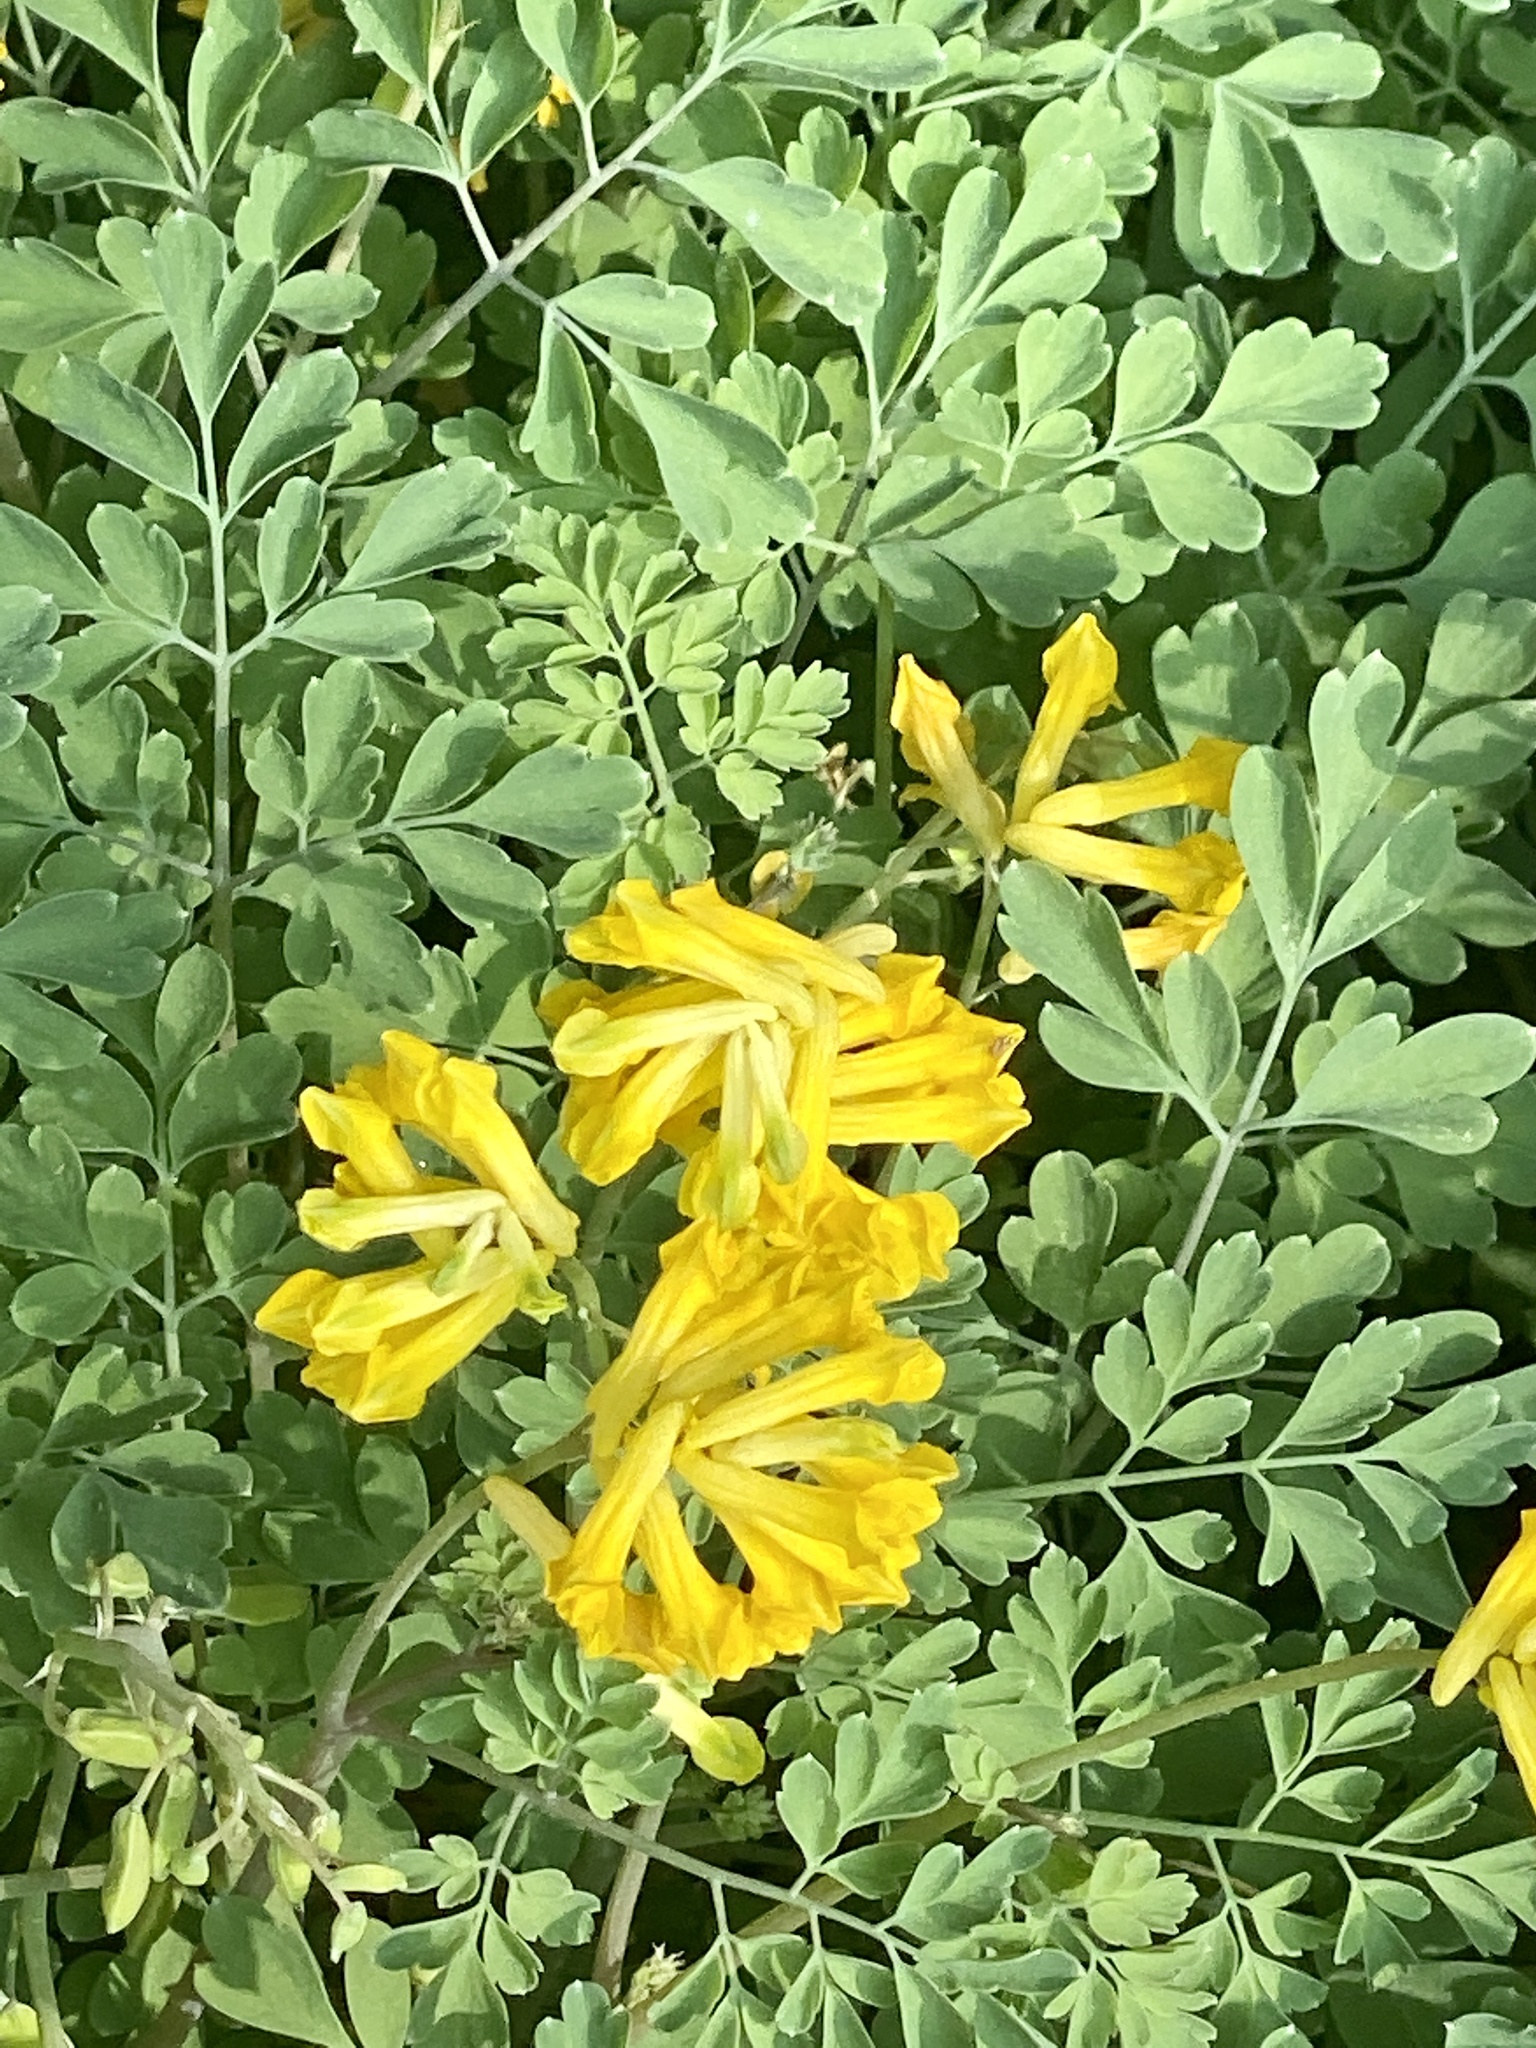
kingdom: Plantae
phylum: Tracheophyta
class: Magnoliopsida
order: Ranunculales
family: Papaveraceae
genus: Pseudofumaria
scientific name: Pseudofumaria lutea
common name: Yellow corydalis
